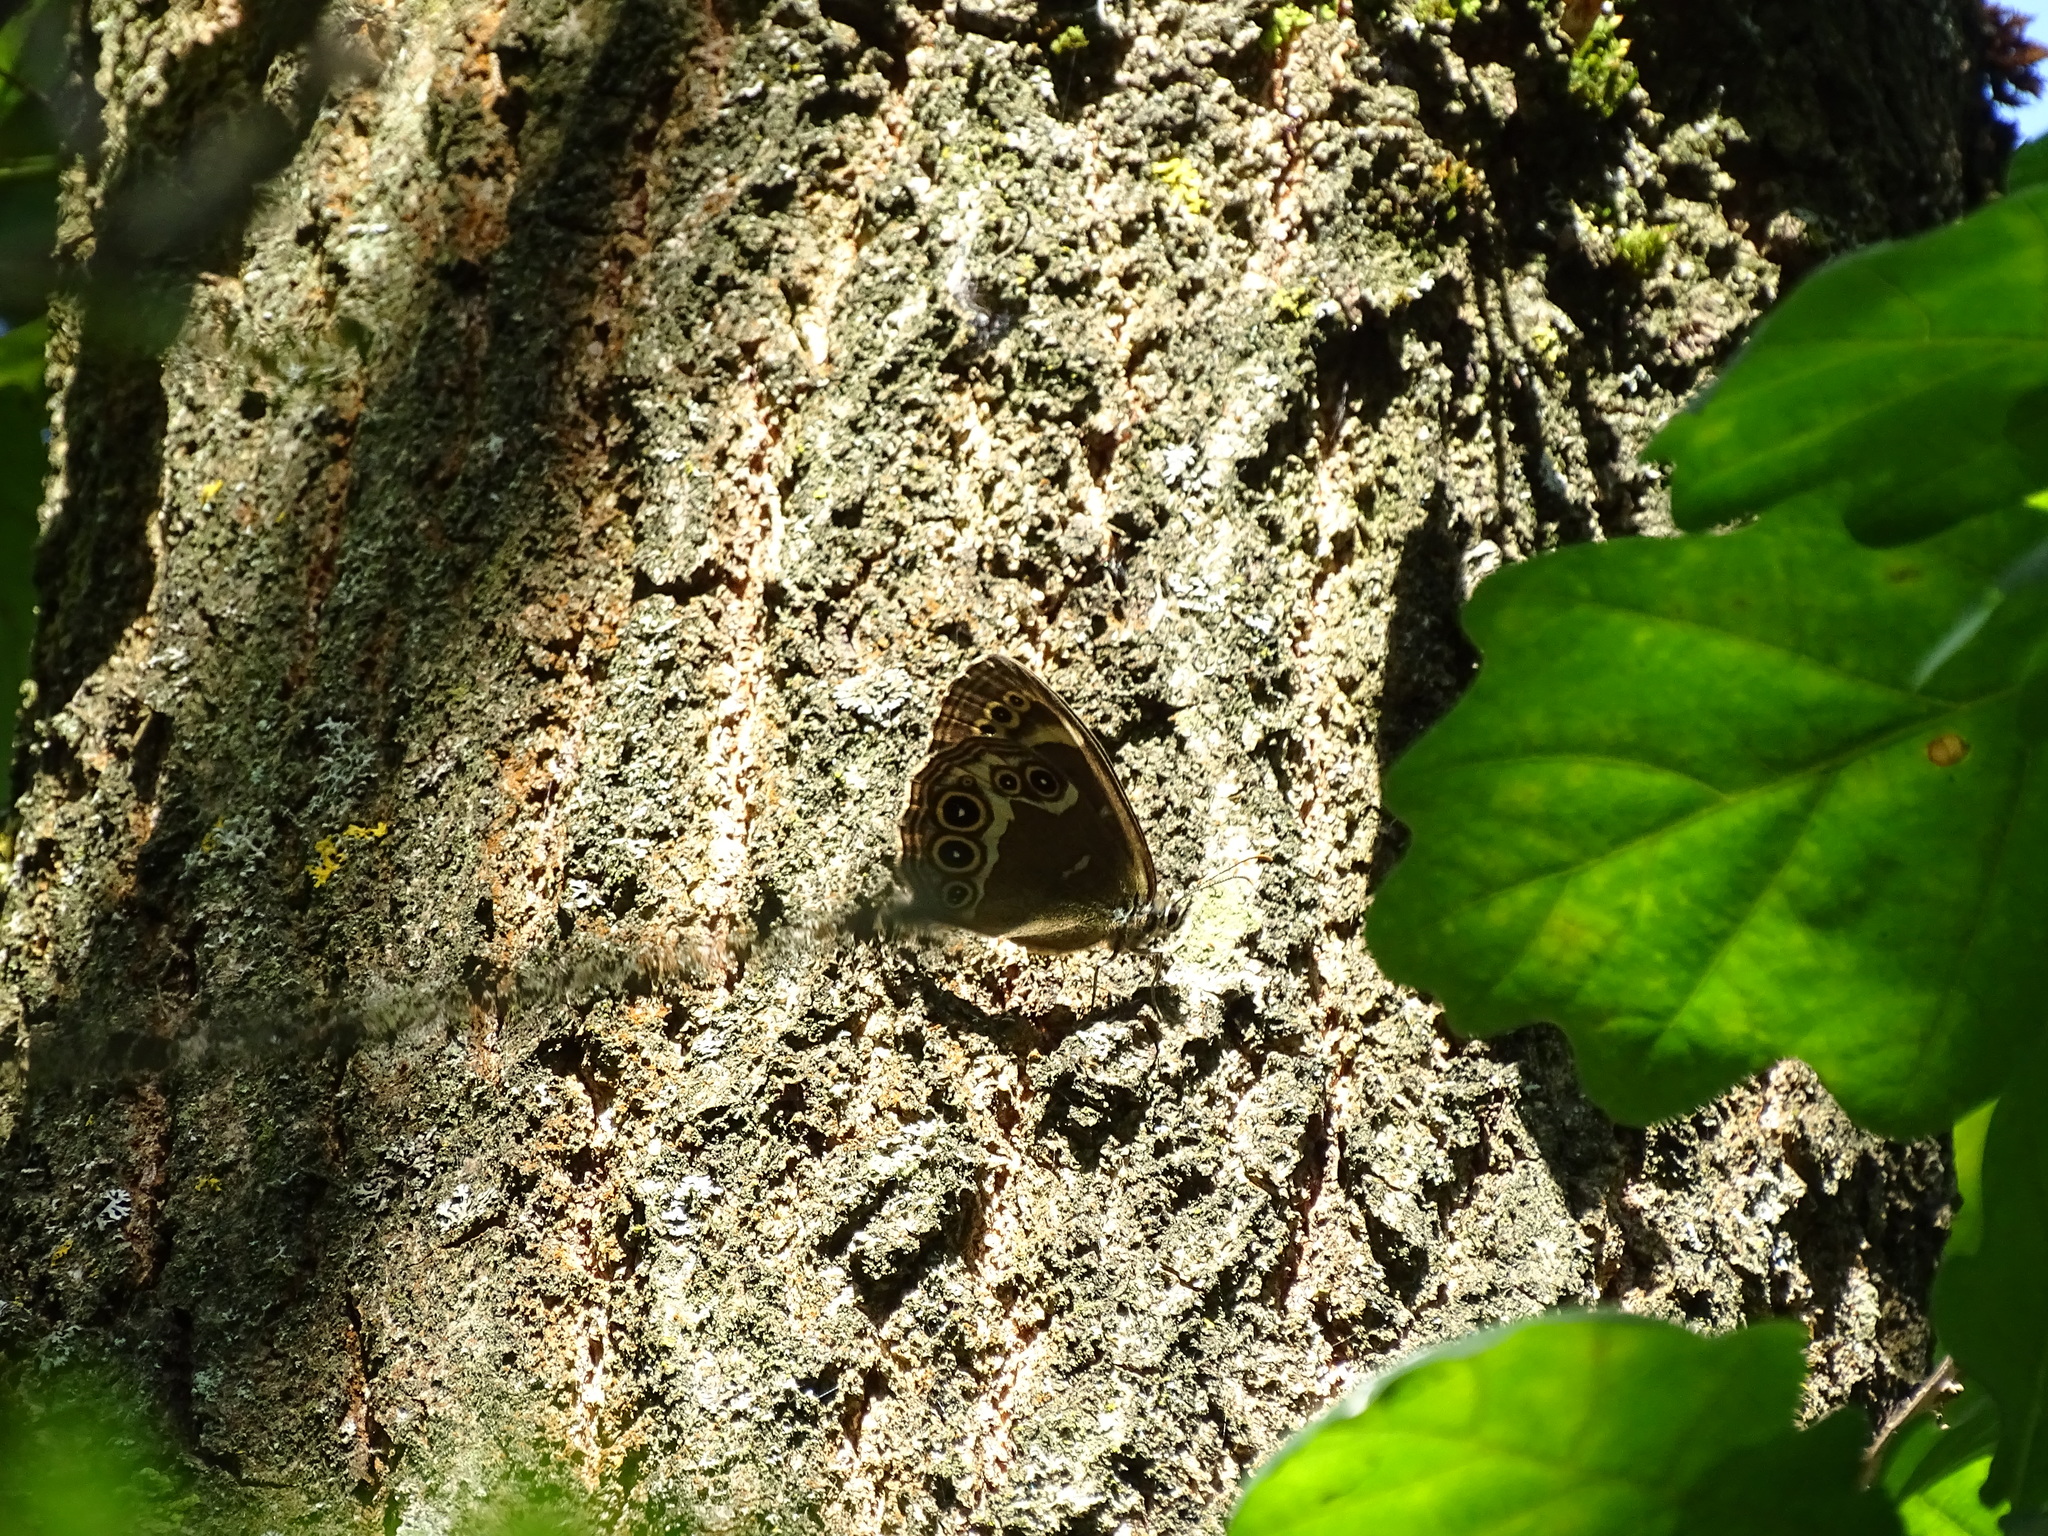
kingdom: Animalia
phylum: Arthropoda
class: Insecta
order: Lepidoptera
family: Nymphalidae
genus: Pararge
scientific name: Pararge Lopinga achine
